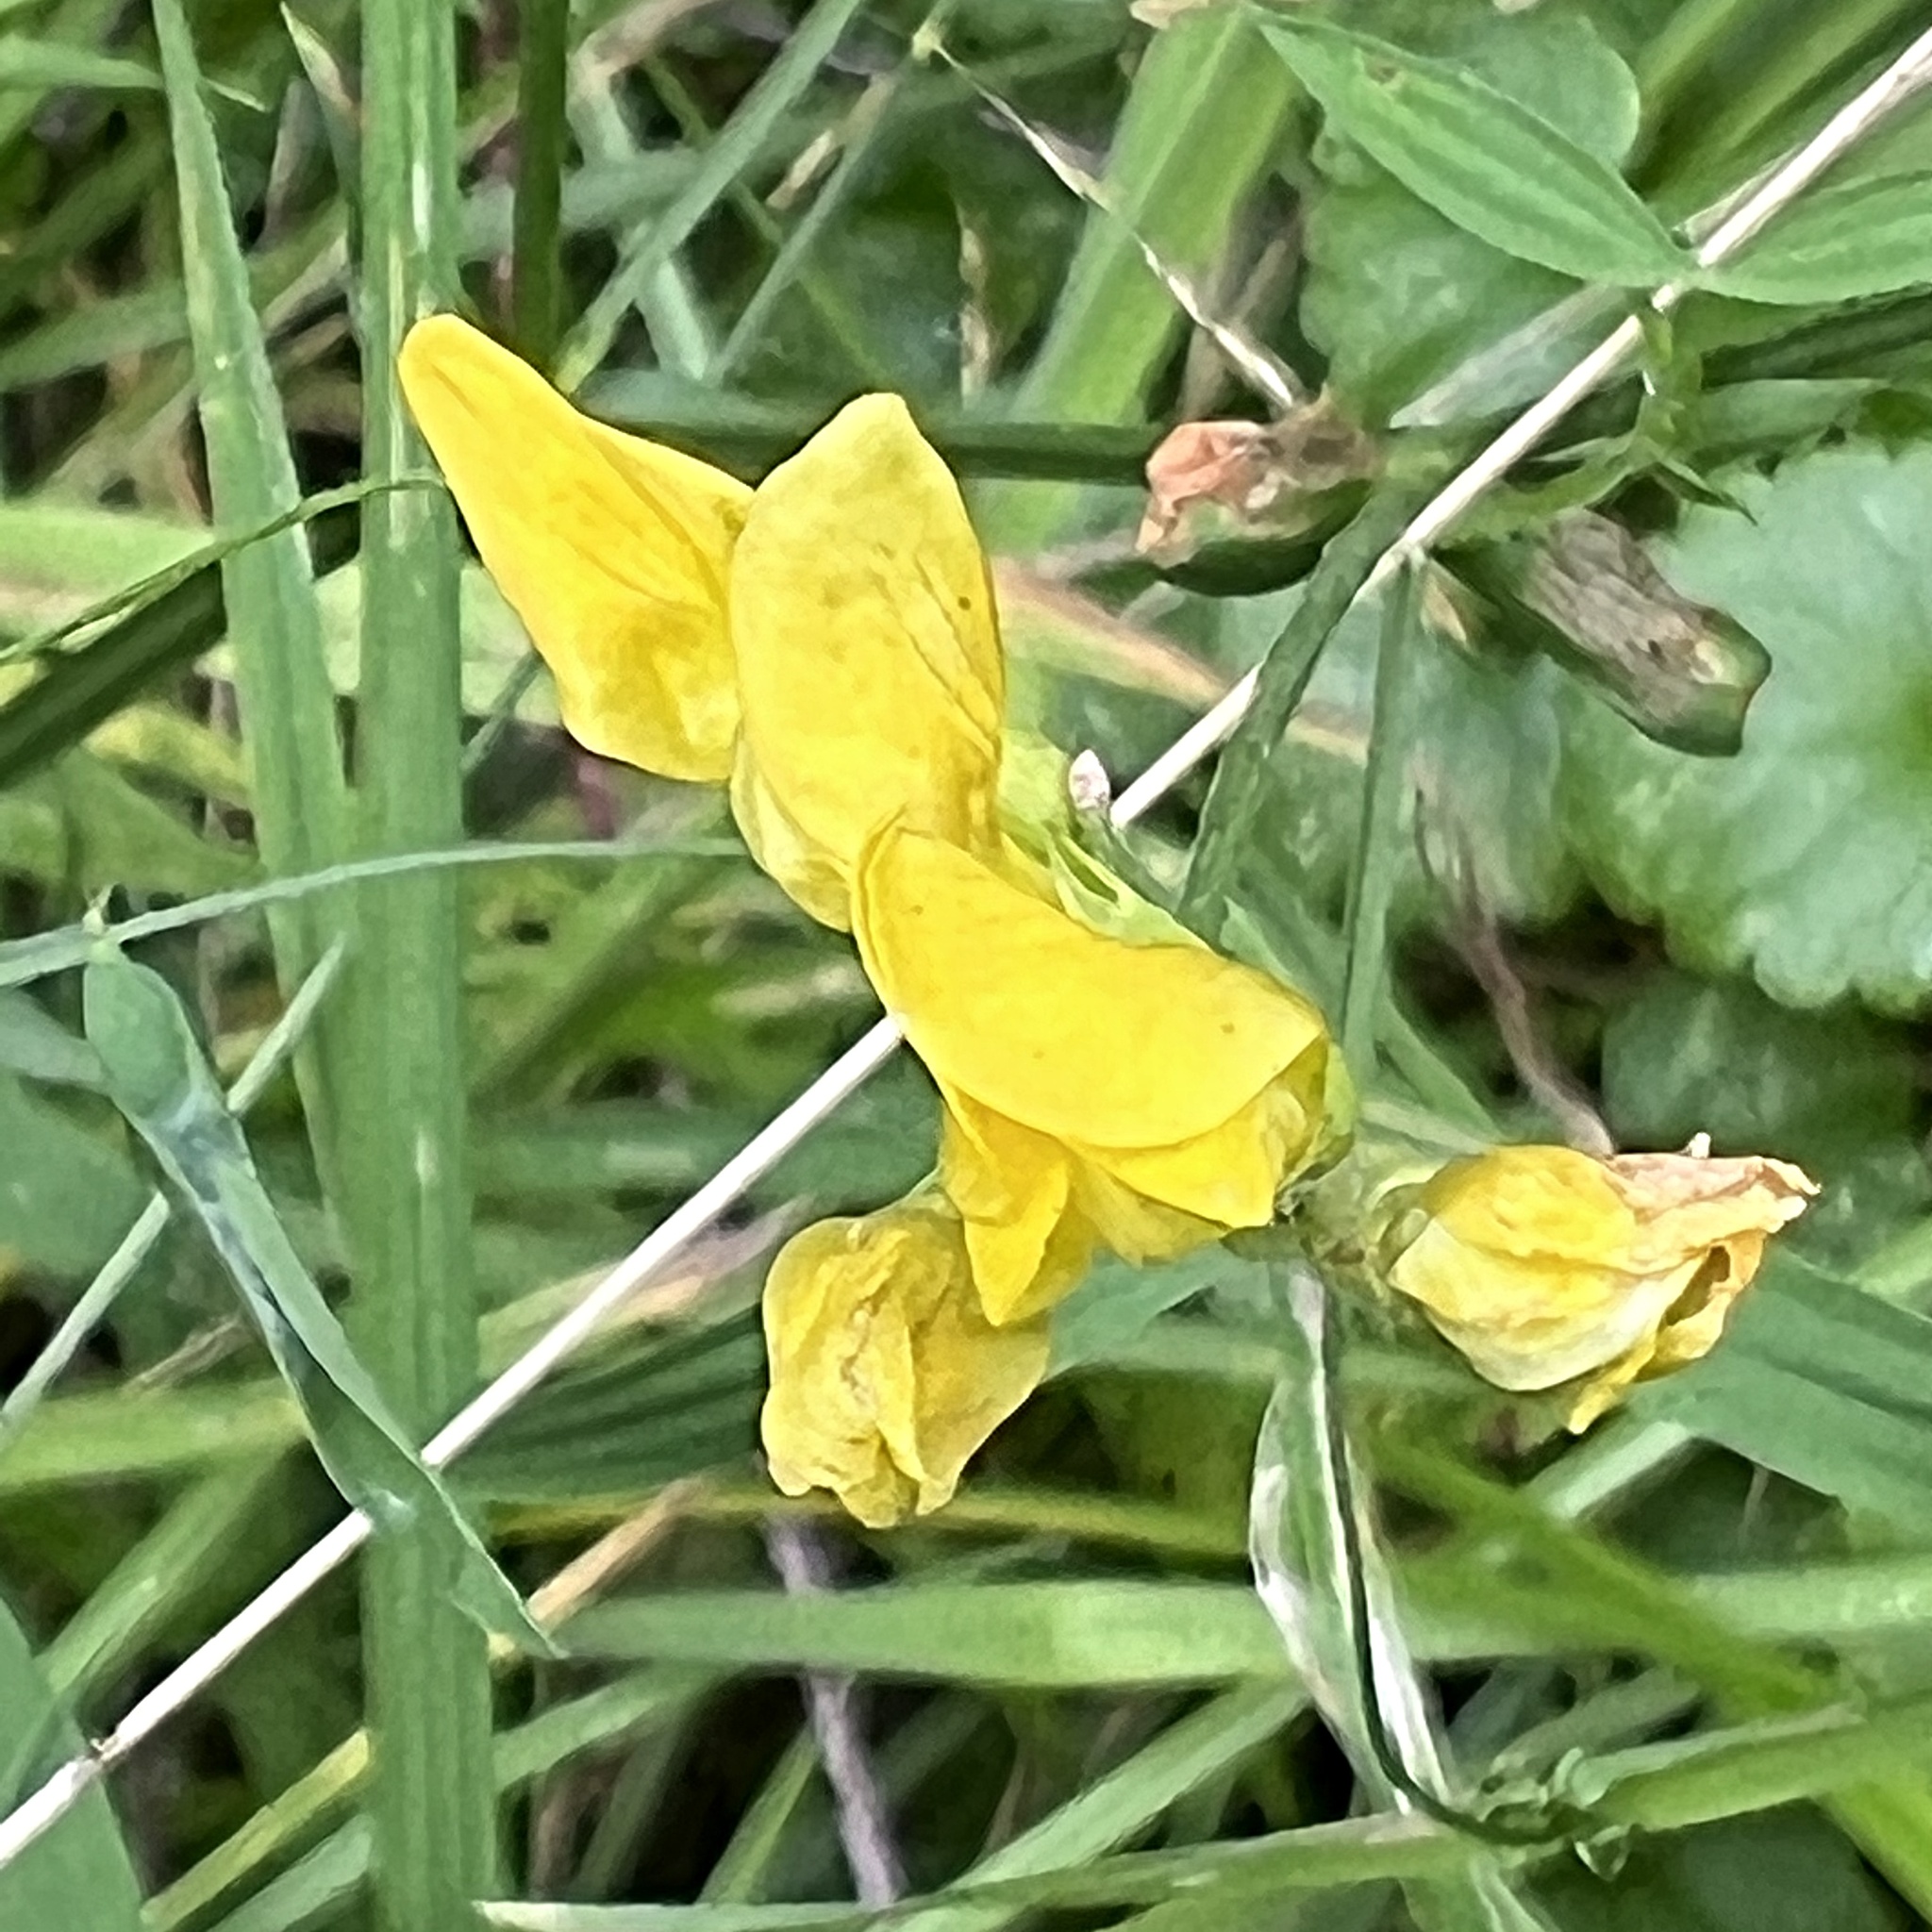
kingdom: Plantae
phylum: Tracheophyta
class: Magnoliopsida
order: Fabales
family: Fabaceae
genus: Lathyrus
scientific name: Lathyrus pratensis
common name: Meadow vetchling
